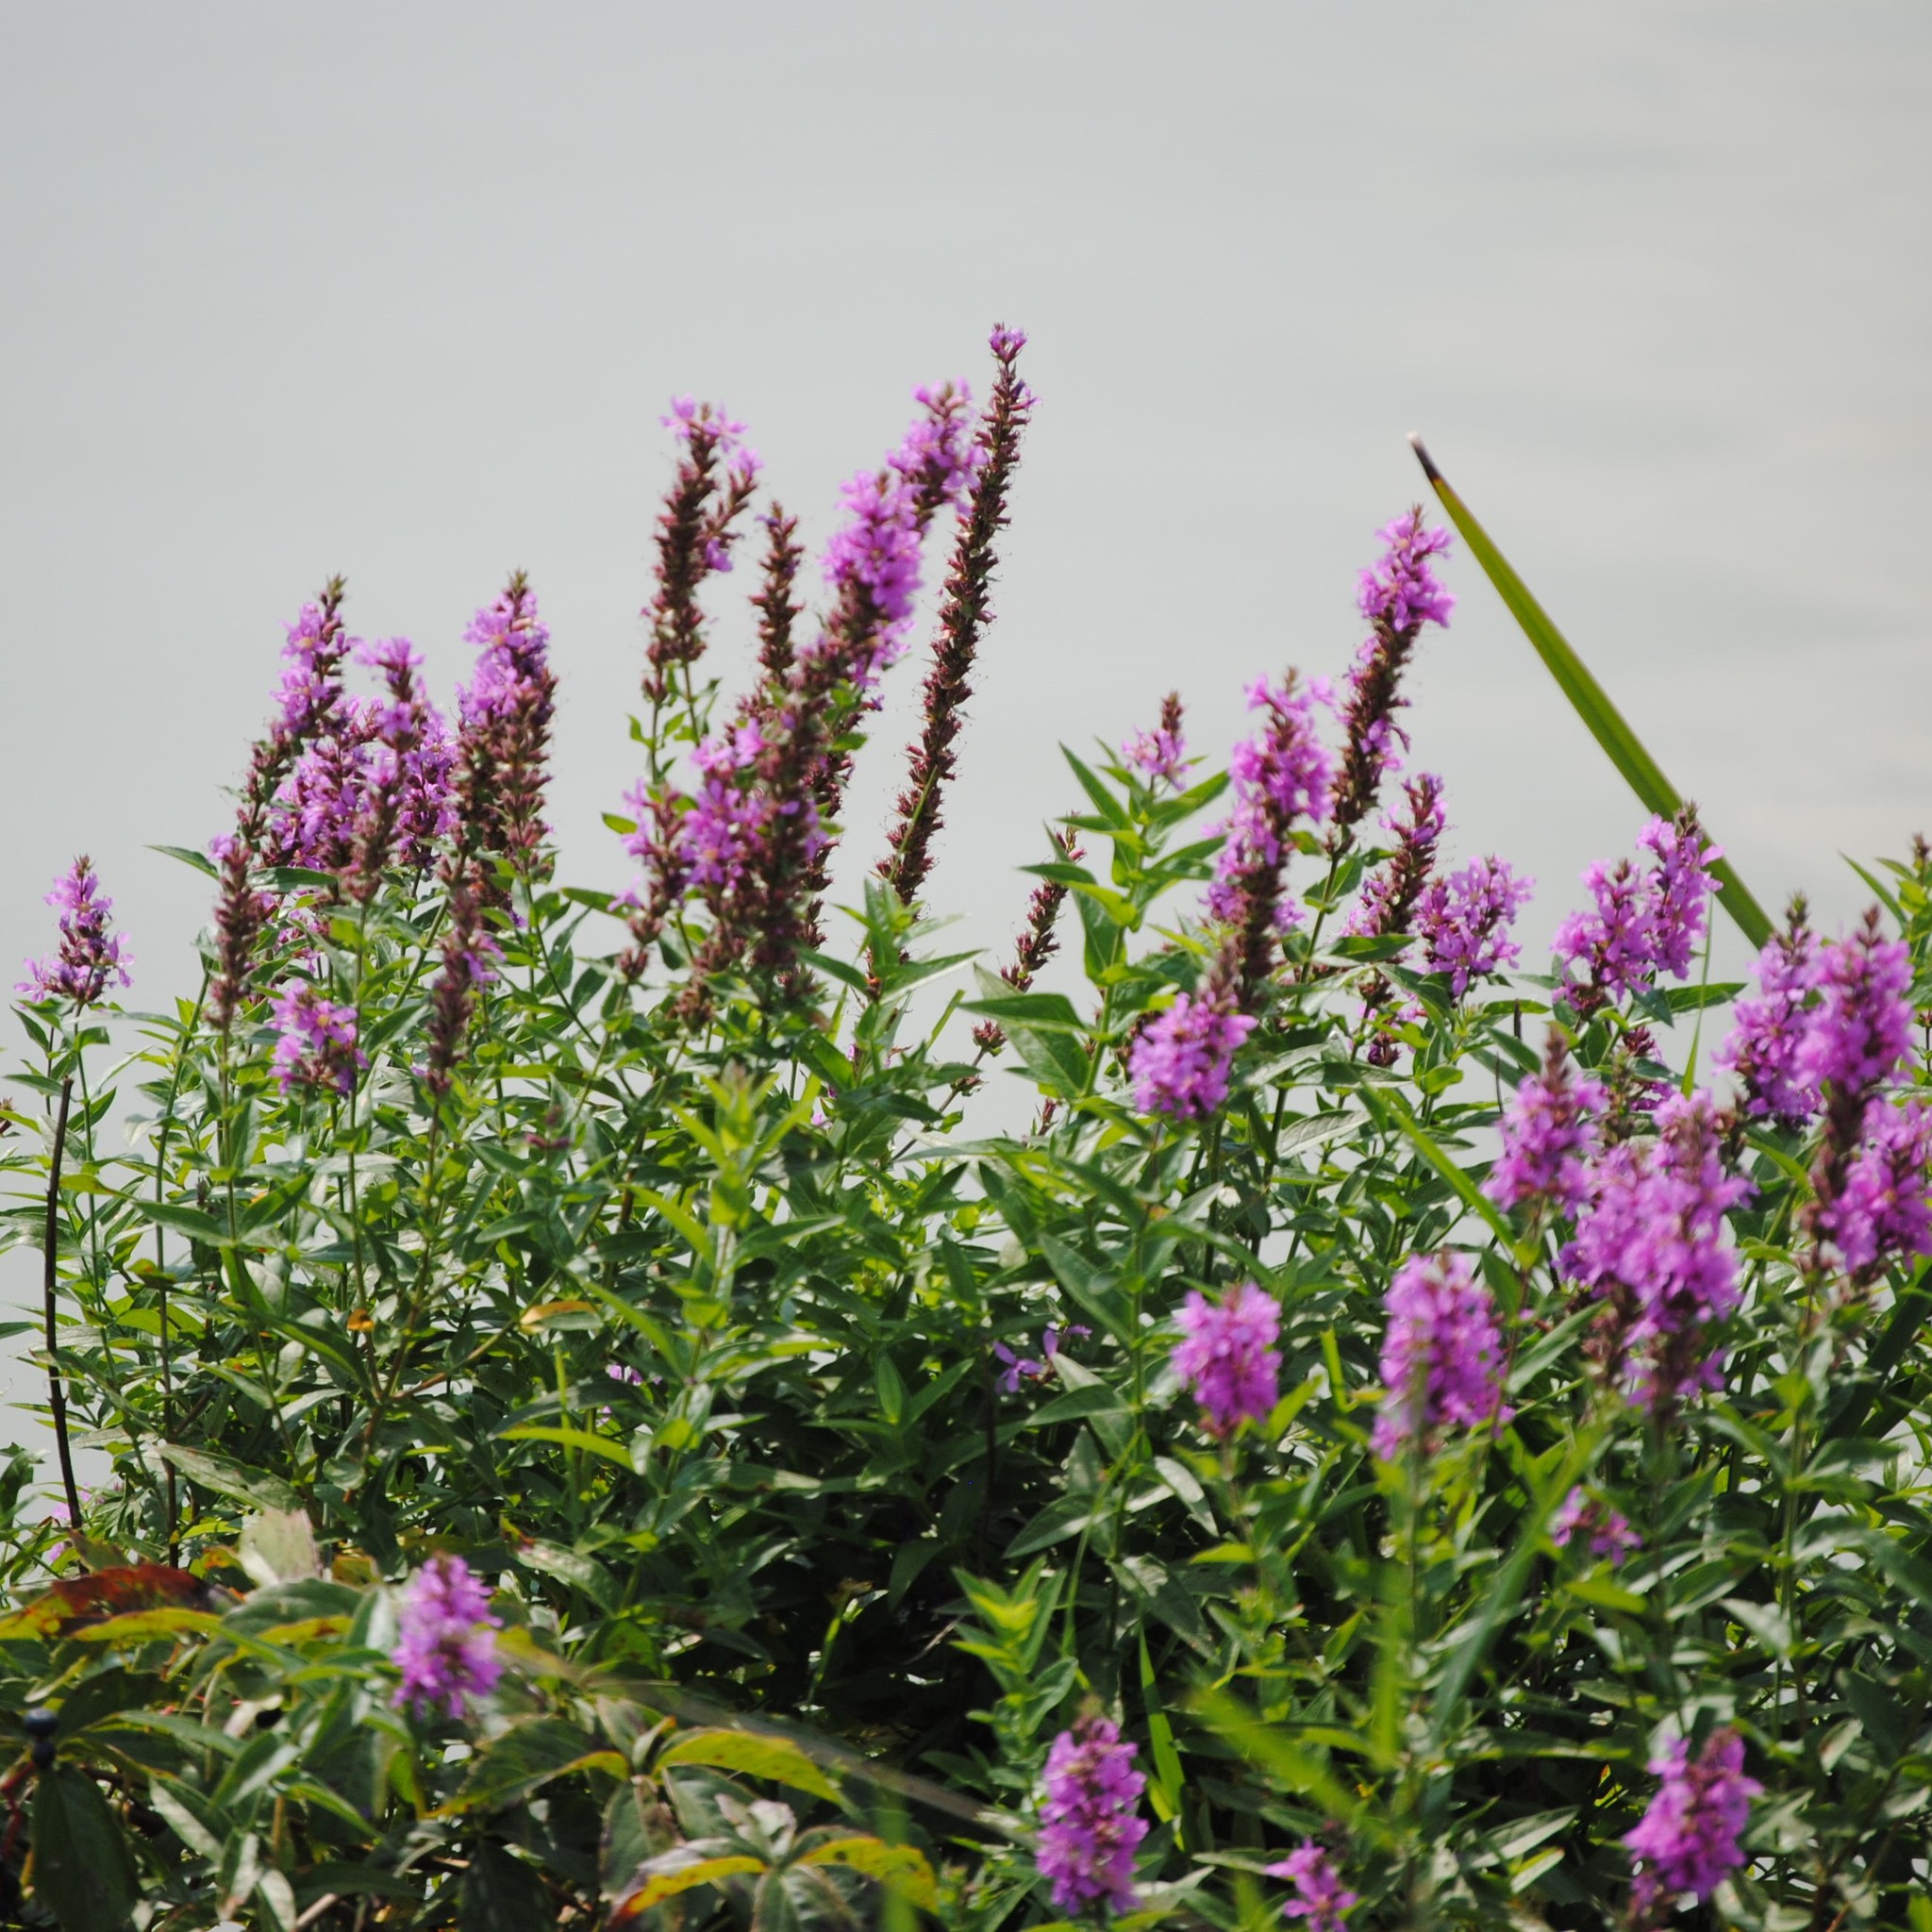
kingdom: Plantae
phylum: Tracheophyta
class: Magnoliopsida
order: Myrtales
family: Lythraceae
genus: Lythrum
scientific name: Lythrum salicaria
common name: Purple loosestrife
